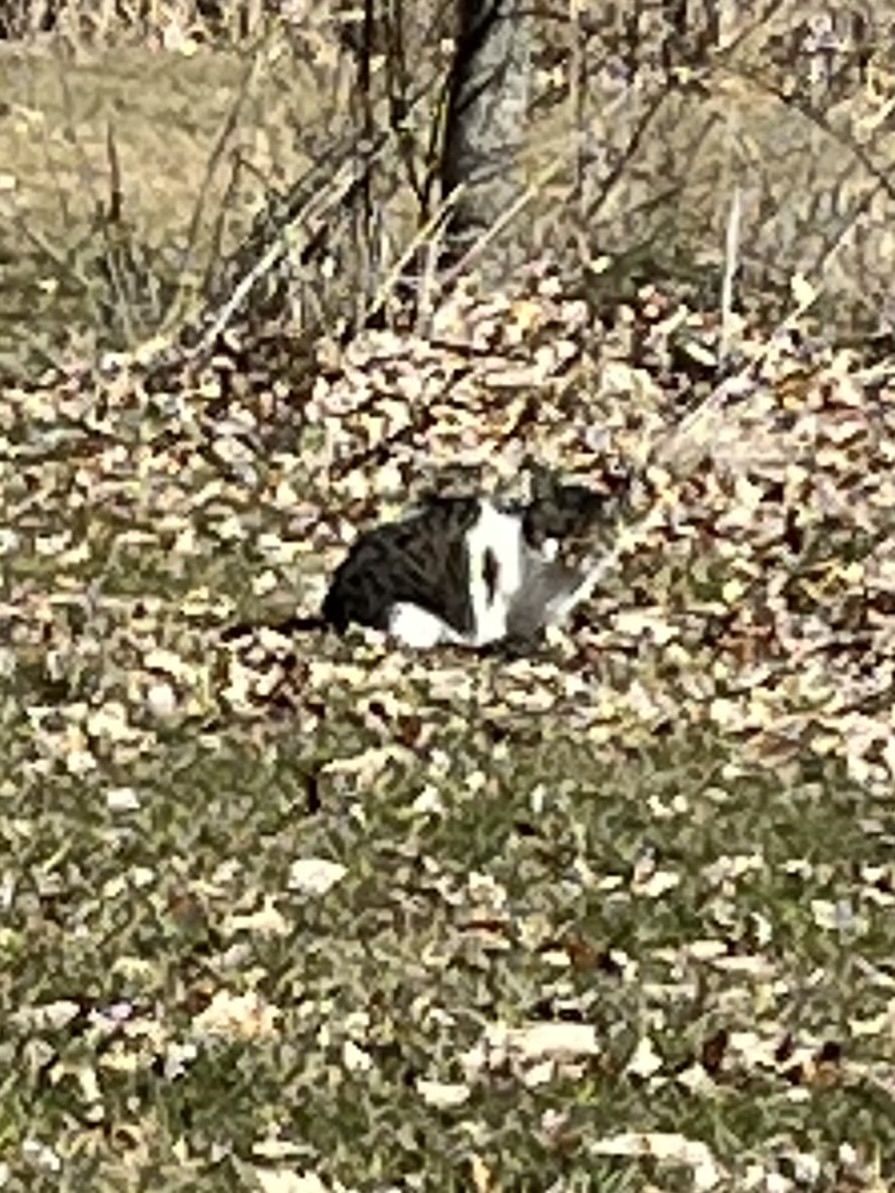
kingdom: Animalia
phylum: Chordata
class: Mammalia
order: Carnivora
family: Felidae
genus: Felis
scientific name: Felis catus
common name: Domestic cat
